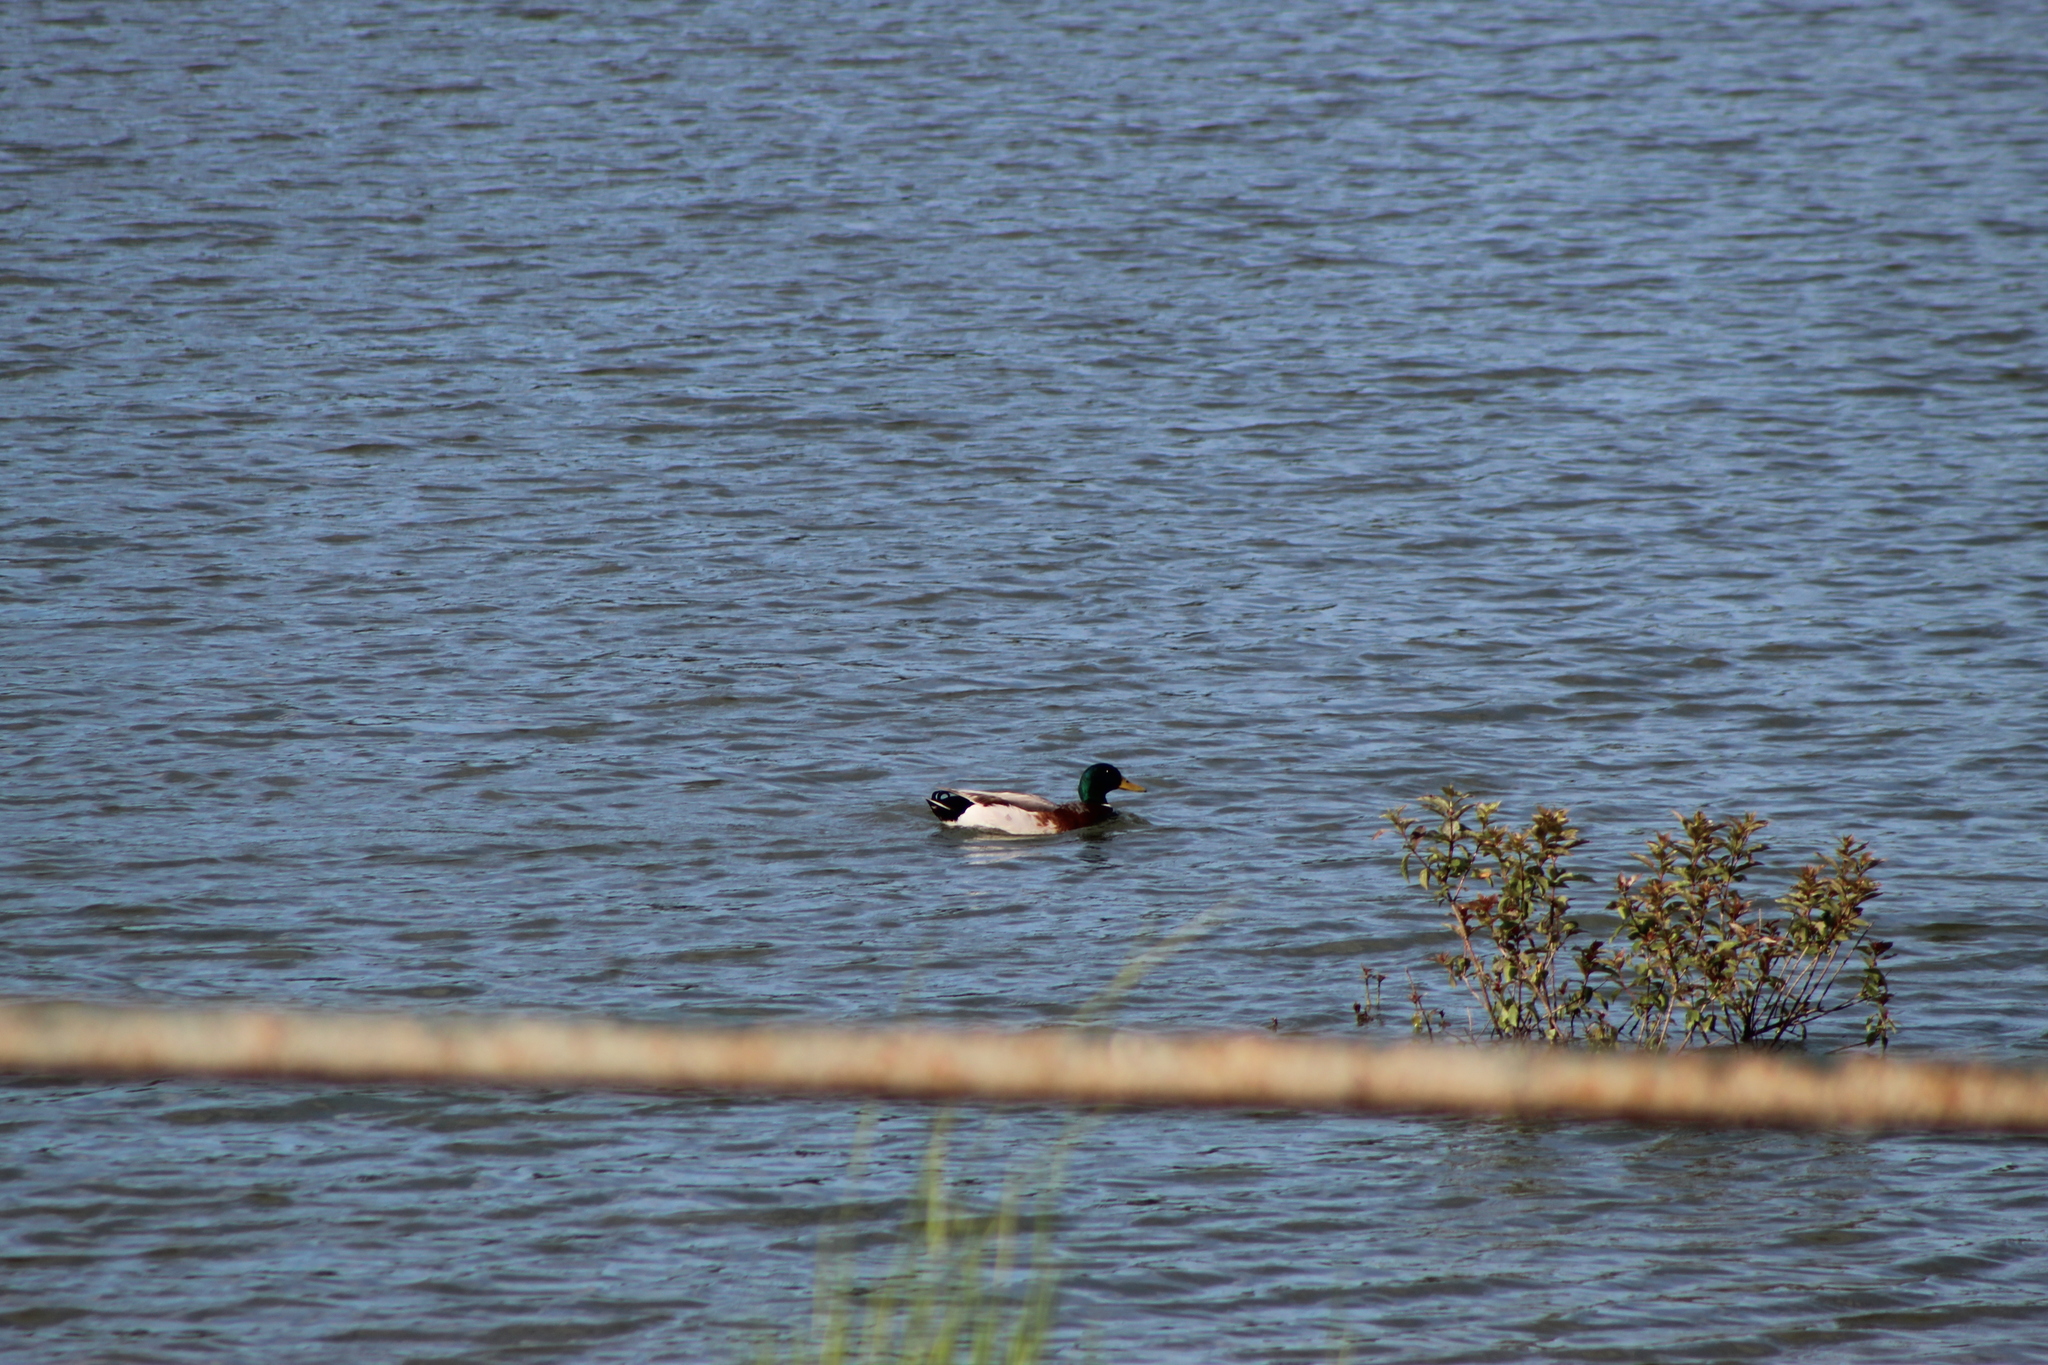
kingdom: Animalia
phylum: Chordata
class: Aves
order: Anseriformes
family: Anatidae
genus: Anas
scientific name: Anas platyrhynchos
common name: Mallard
